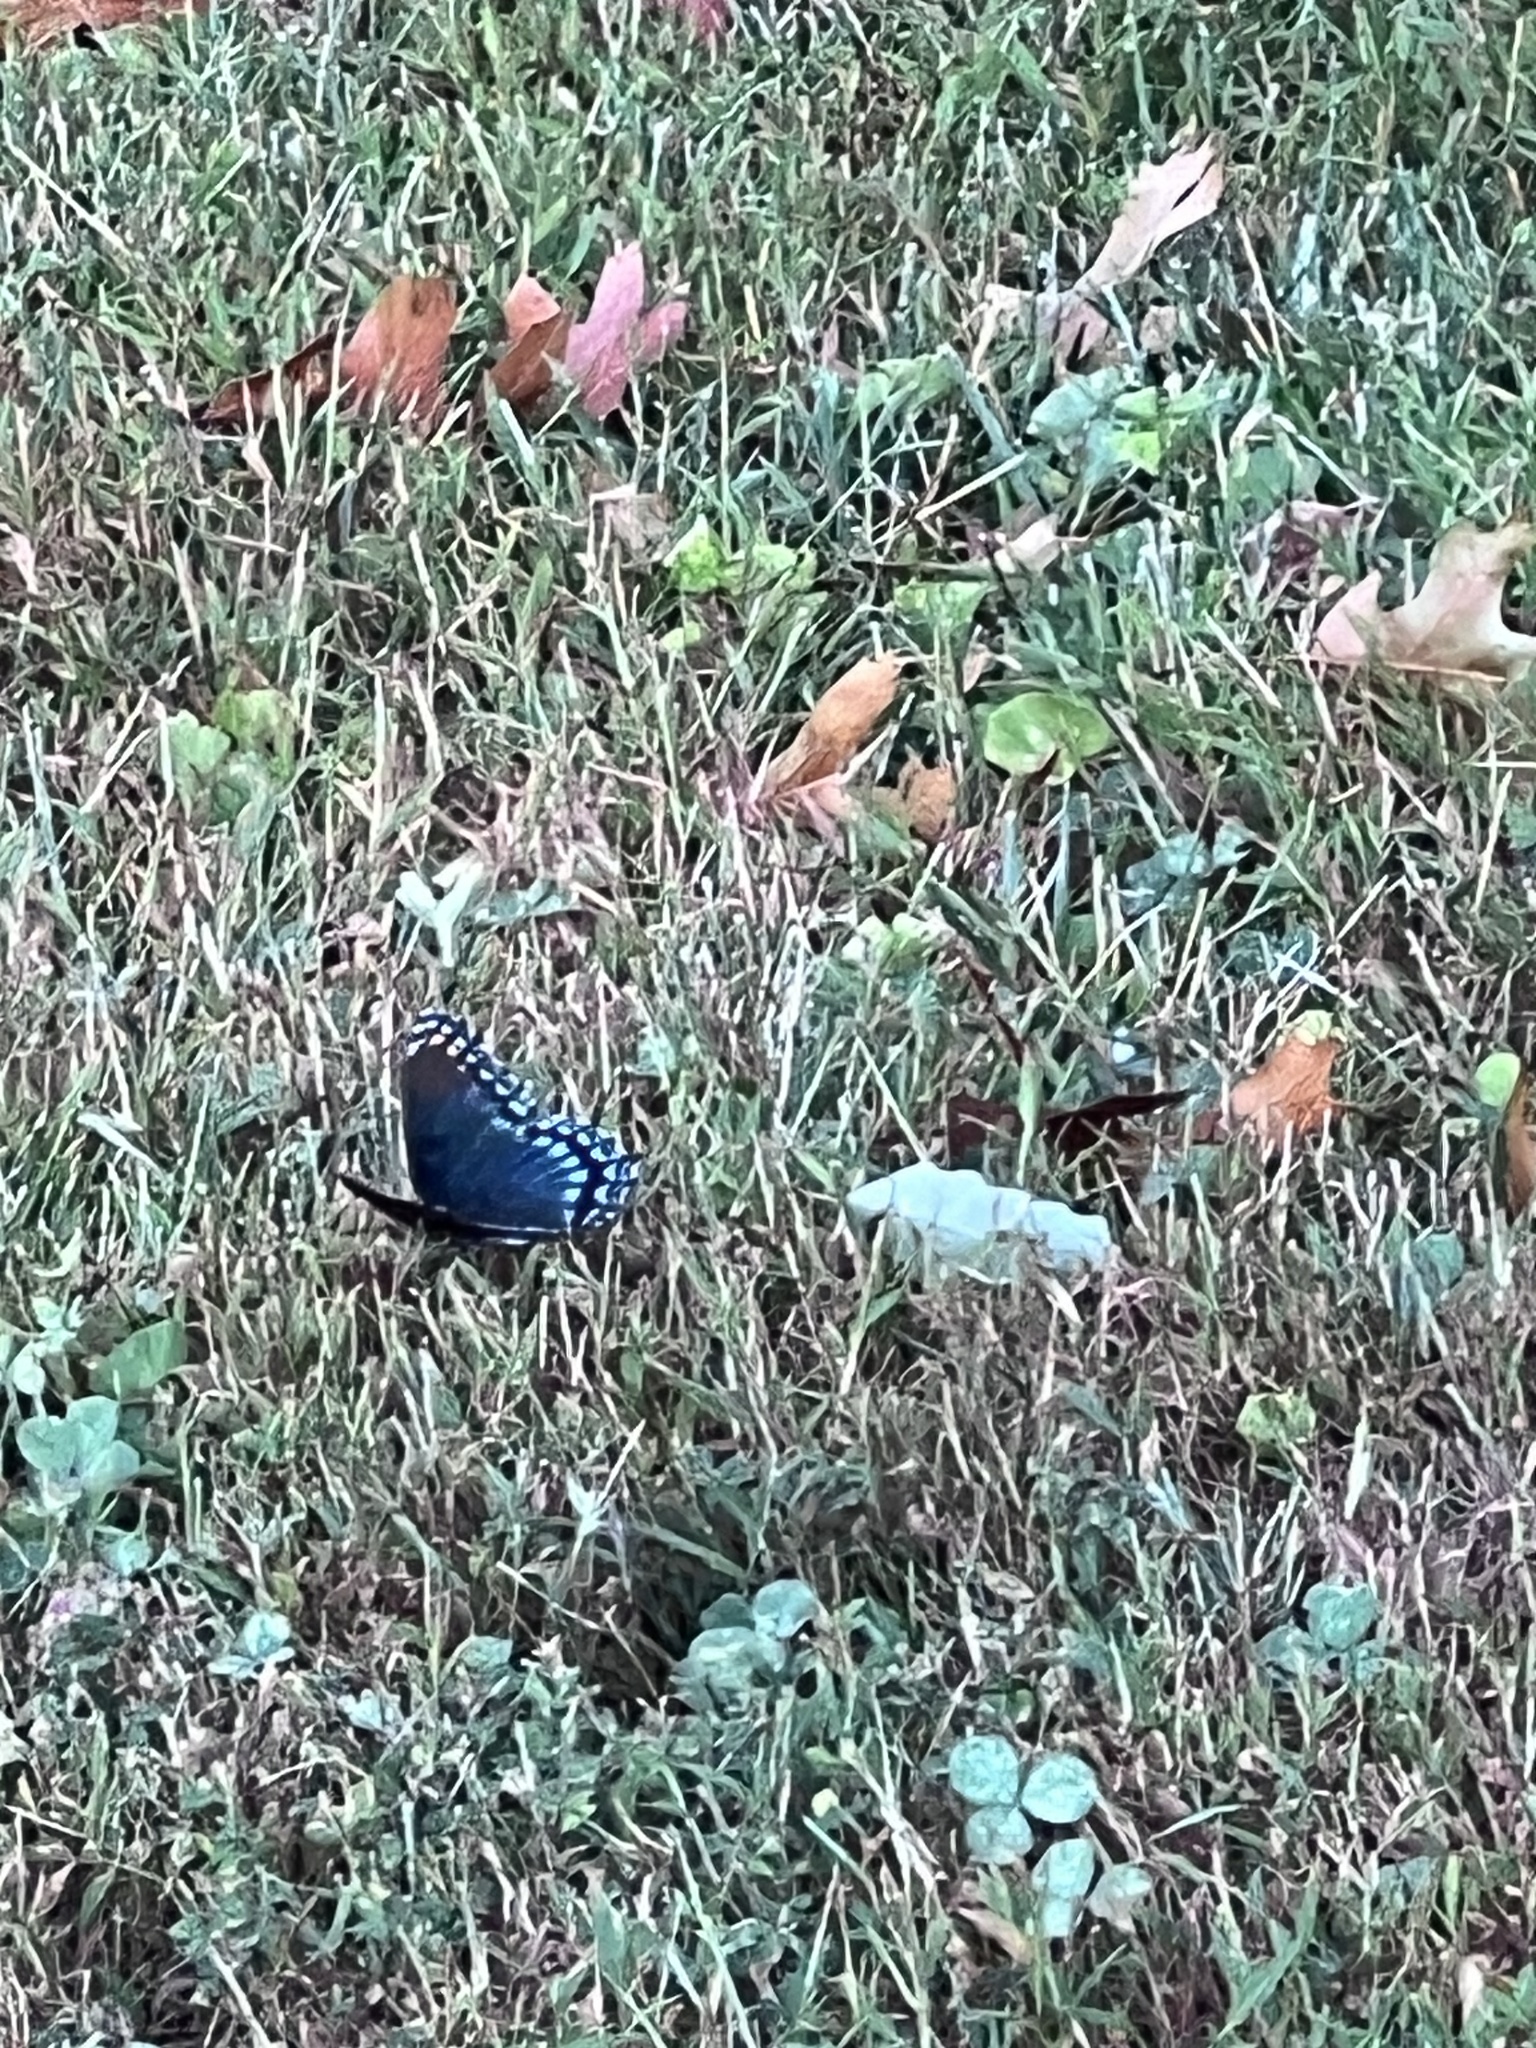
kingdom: Animalia
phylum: Arthropoda
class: Insecta
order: Lepidoptera
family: Nymphalidae
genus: Limenitis
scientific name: Limenitis astyanax
